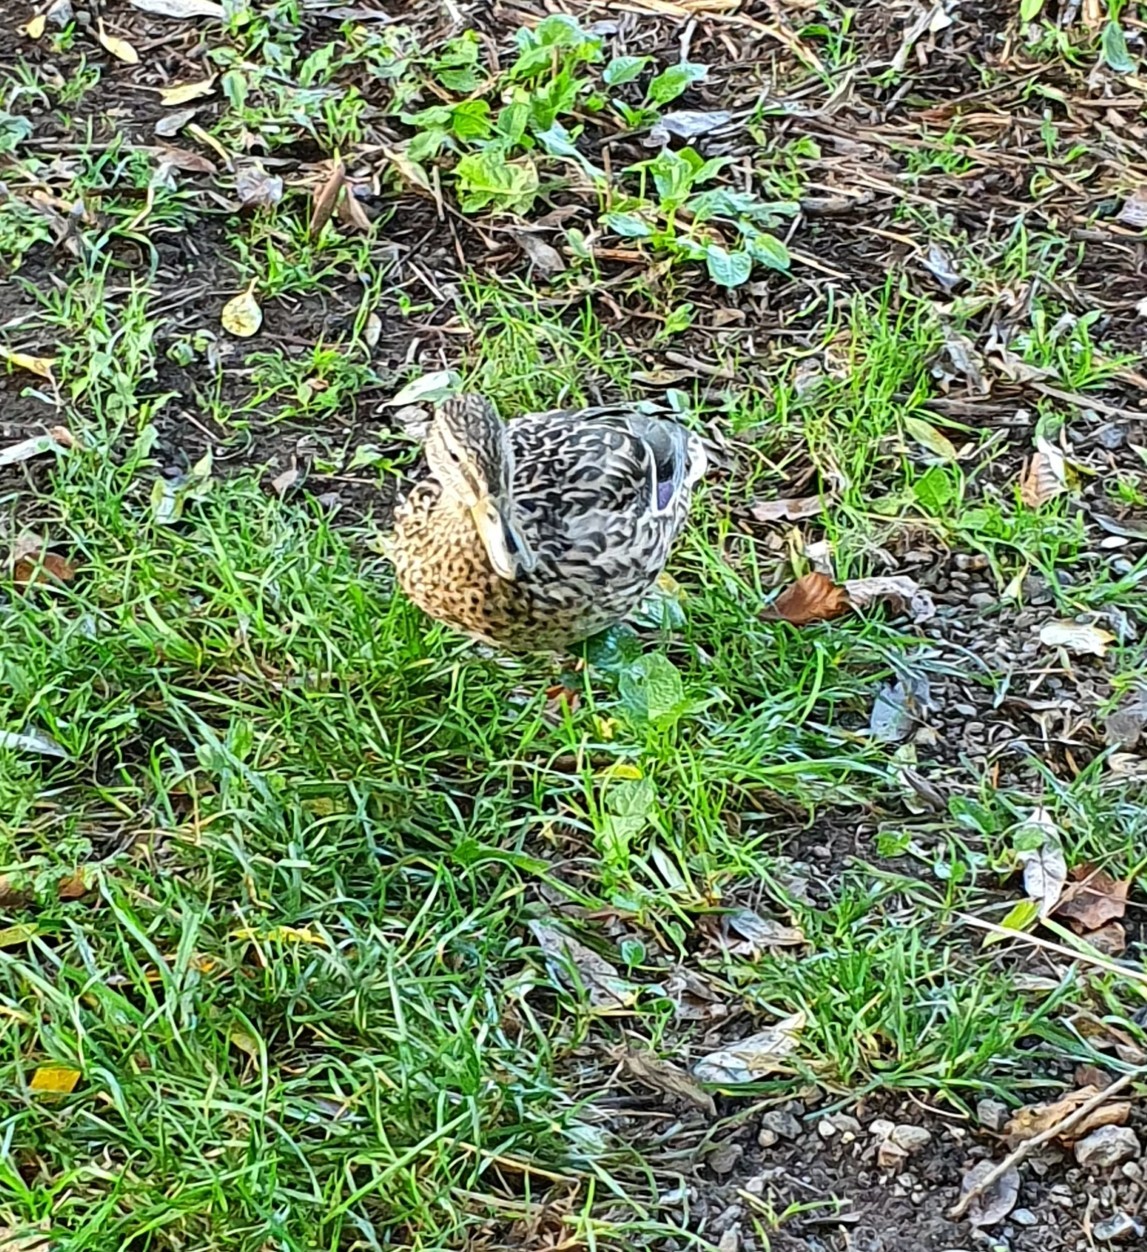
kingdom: Animalia
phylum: Chordata
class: Aves
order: Anseriformes
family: Anatidae
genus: Anas
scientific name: Anas platyrhynchos
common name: Mallard
